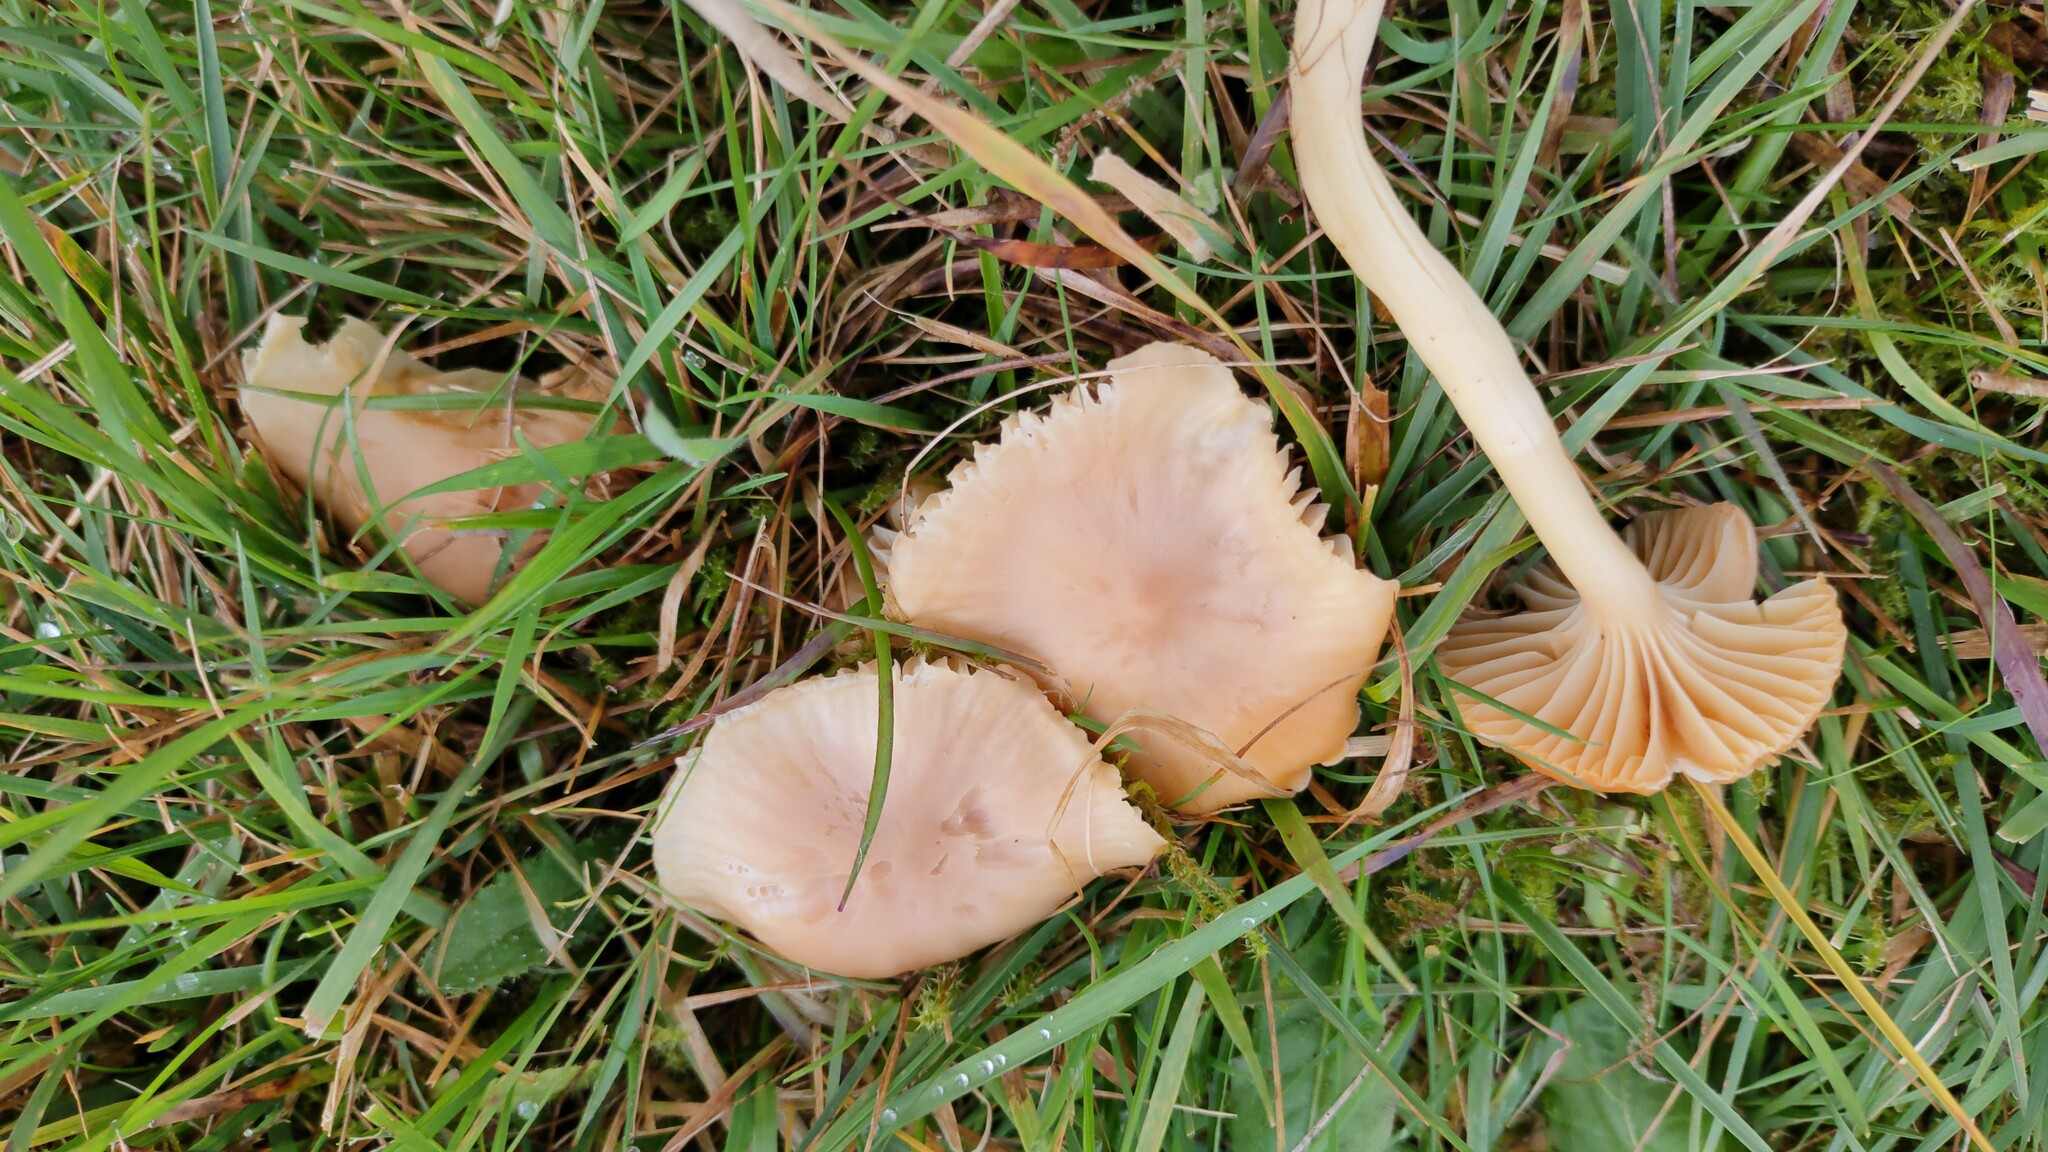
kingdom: Fungi
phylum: Basidiomycota
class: Agaricomycetes
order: Agaricales
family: Hygrophoraceae
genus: Cuphophyllus
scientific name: Cuphophyllus pratensis
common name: Meadow waxcap
